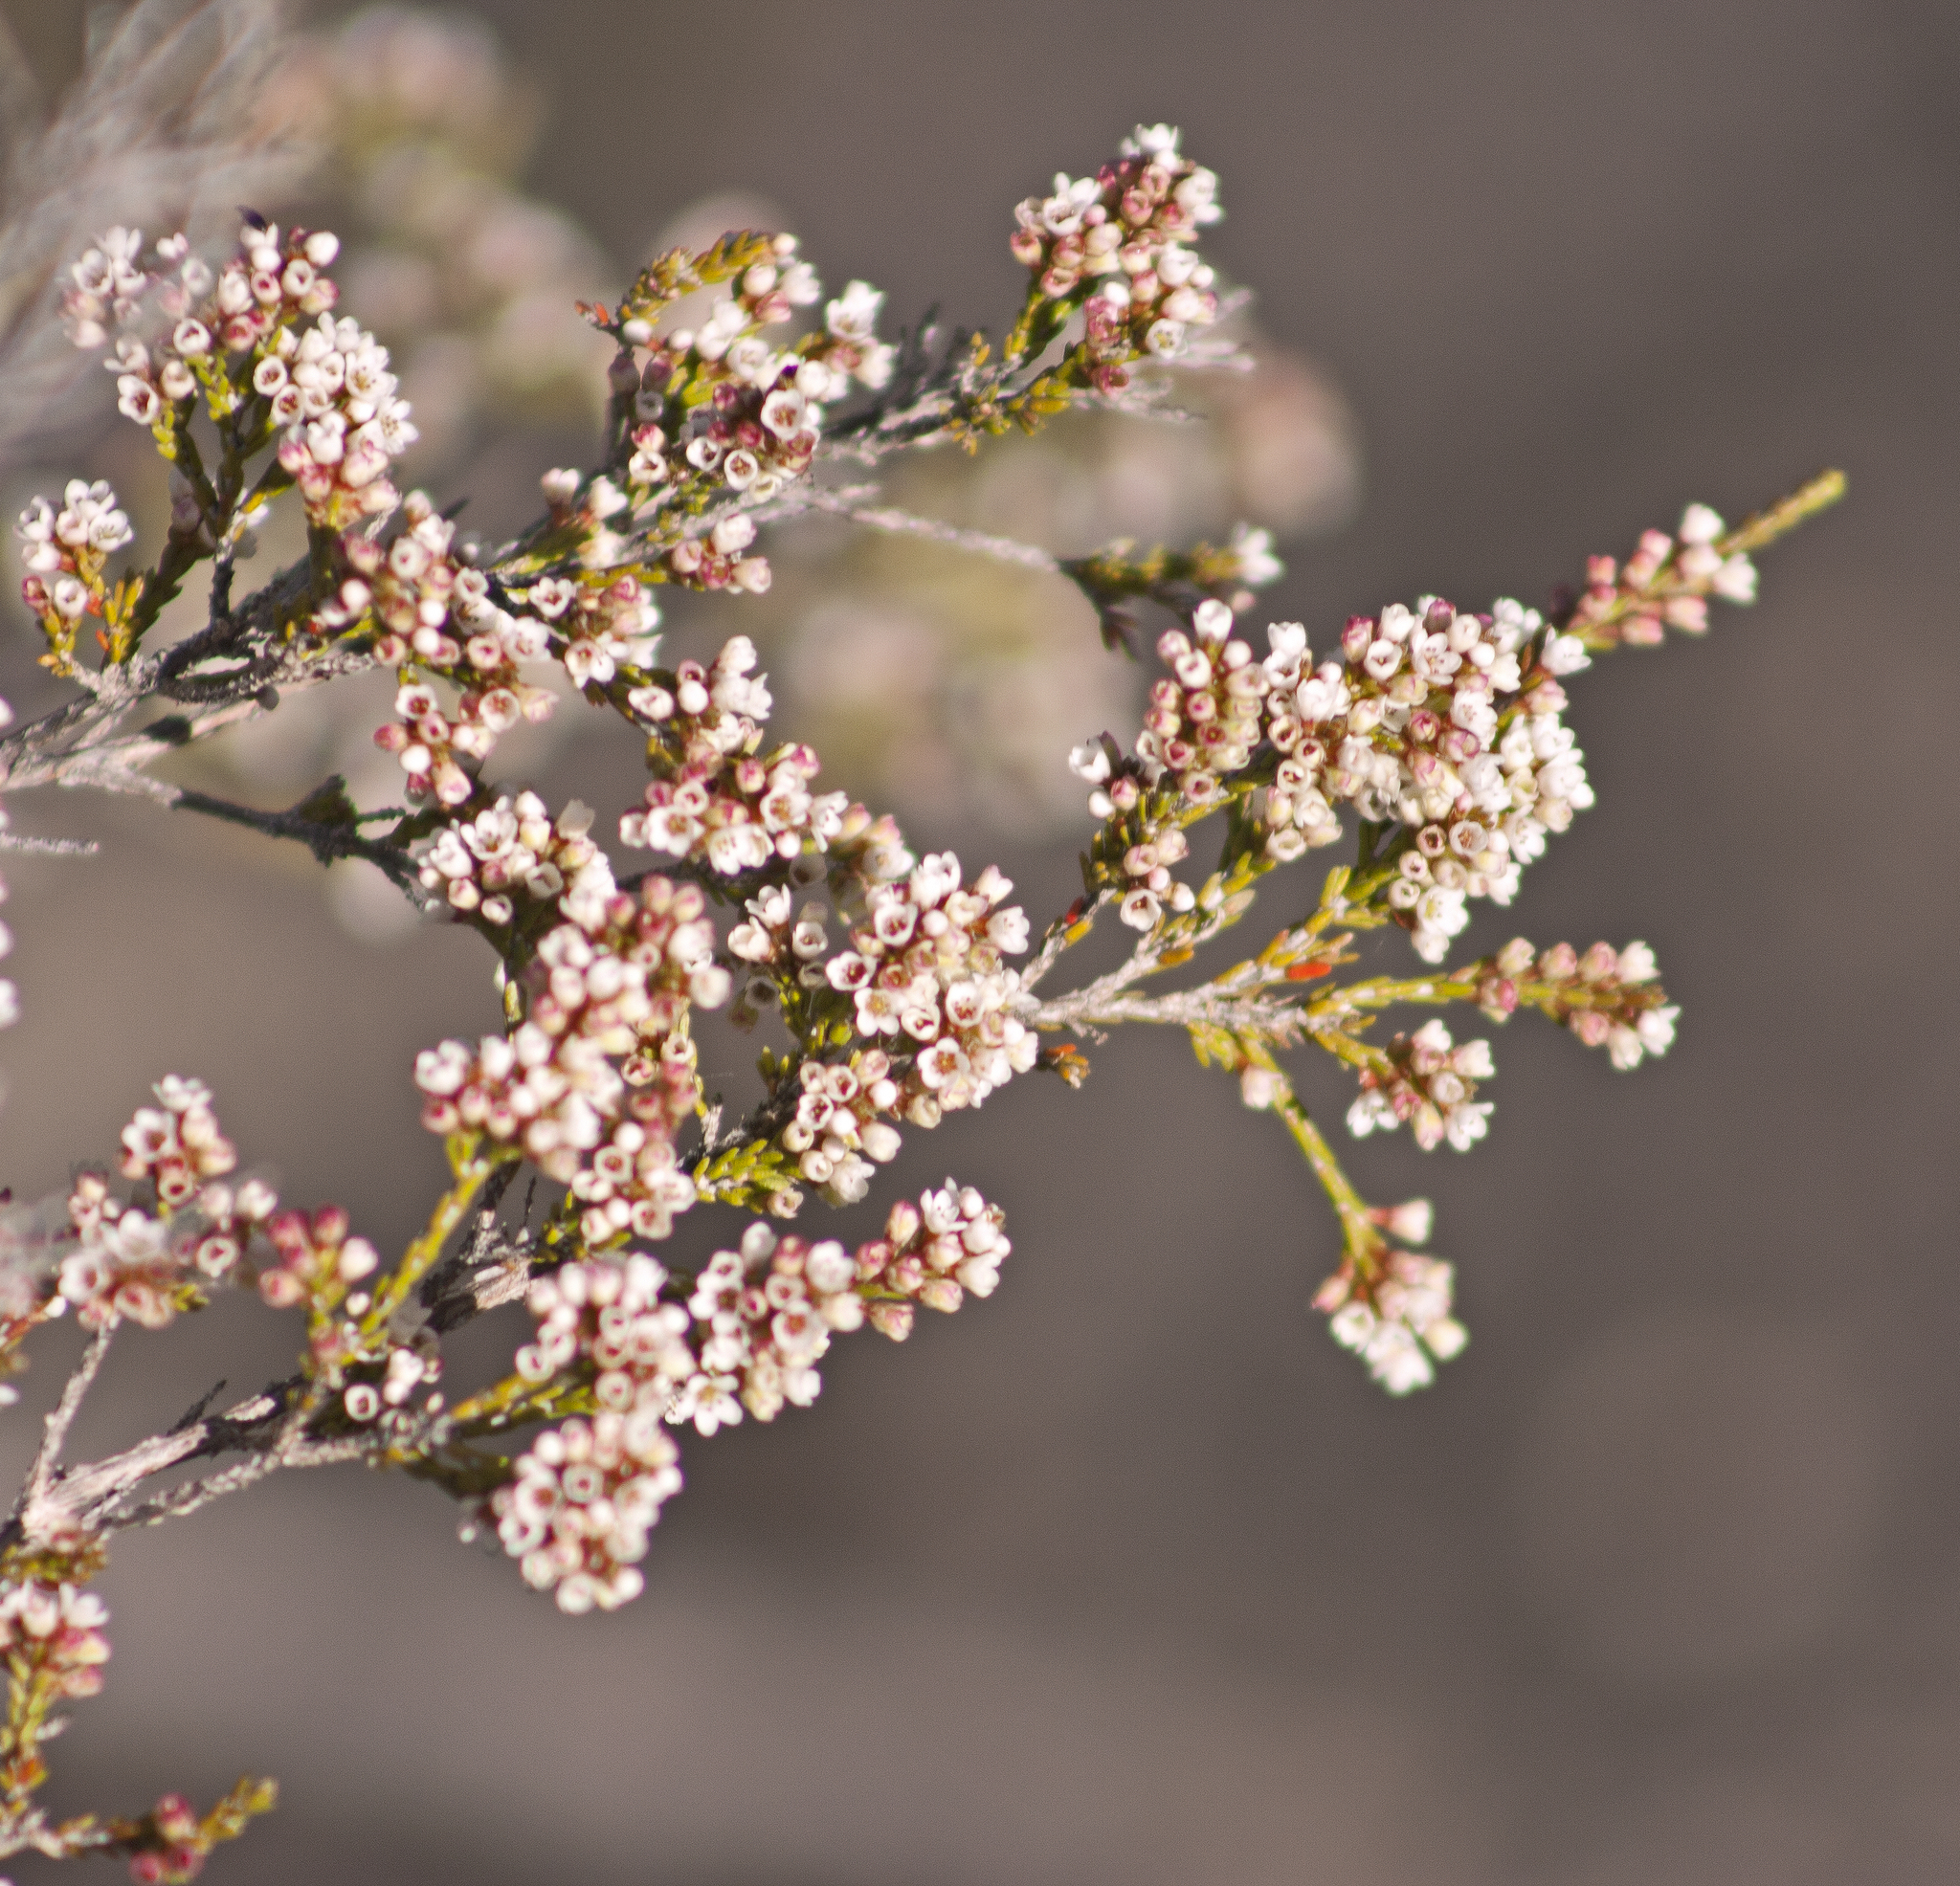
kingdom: Plantae
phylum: Tracheophyta
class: Magnoliopsida
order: Myrtales
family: Myrtaceae
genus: Micromyrtus
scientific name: Micromyrtus sessilis
